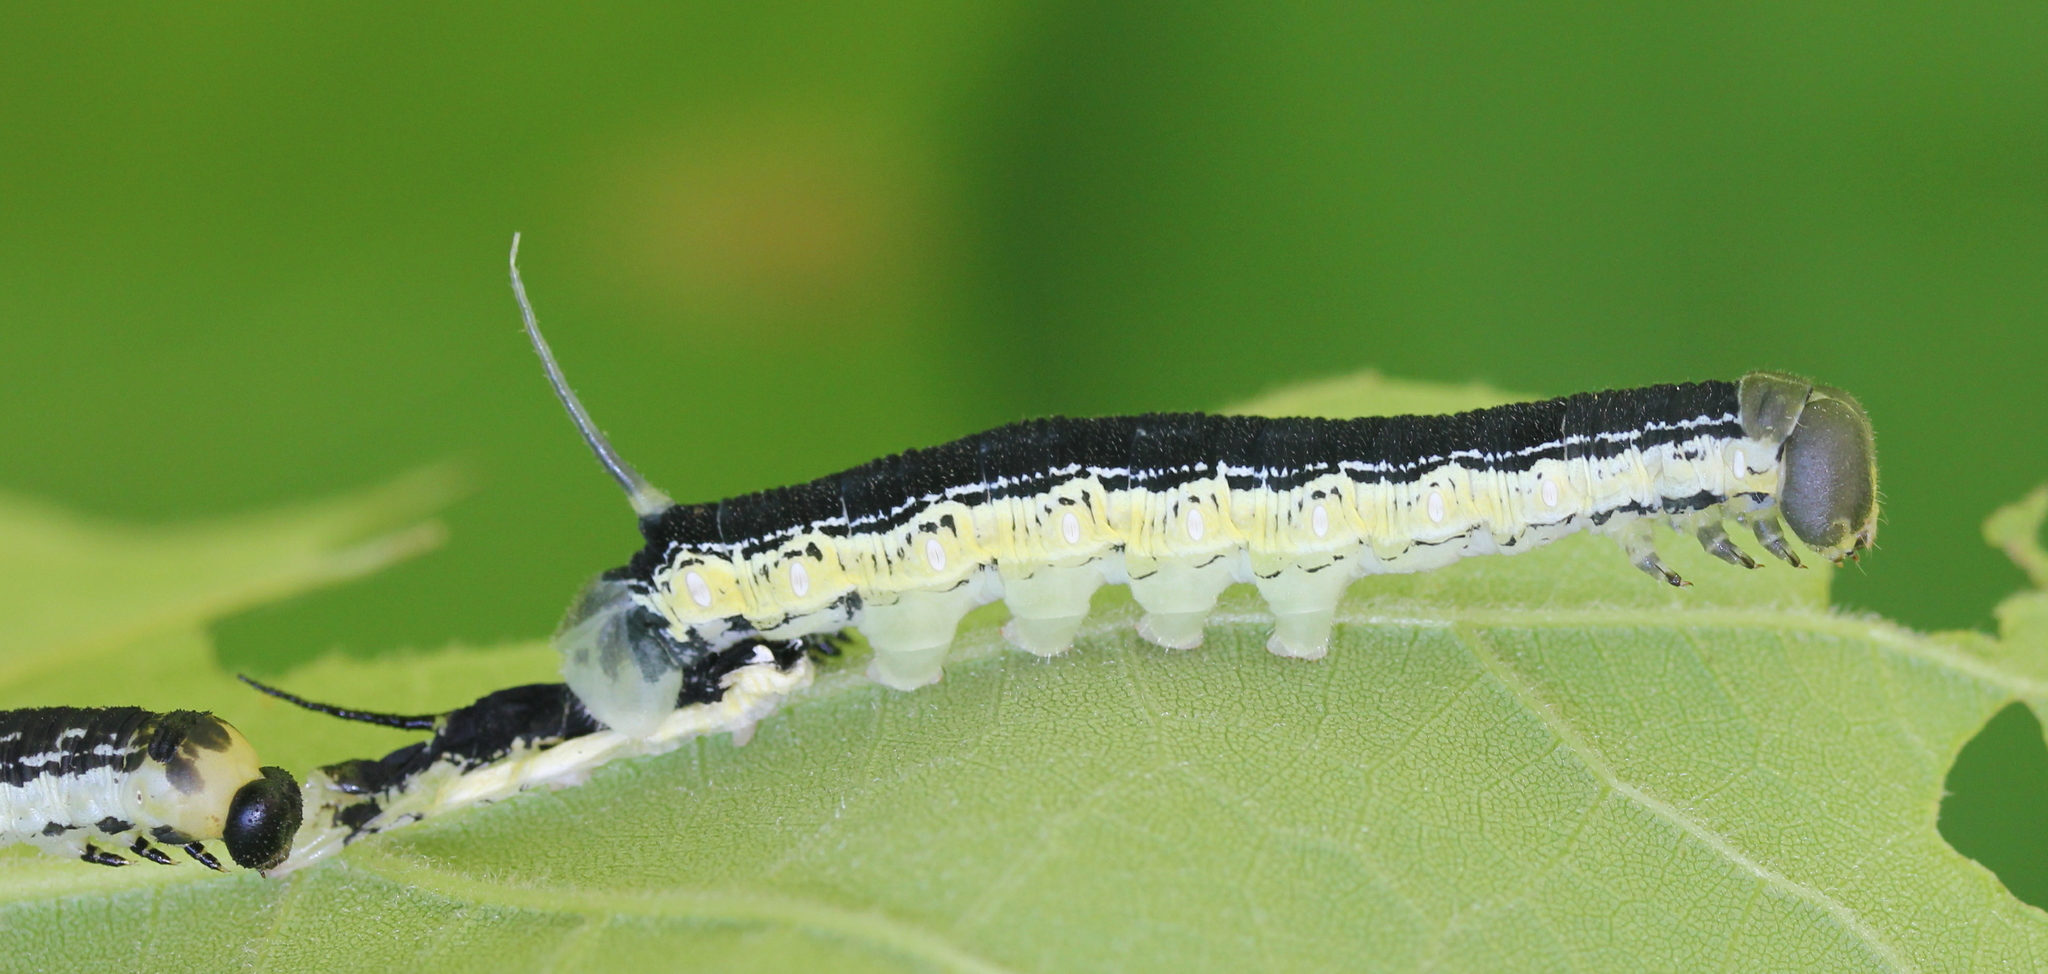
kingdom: Animalia
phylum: Arthropoda
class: Insecta
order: Lepidoptera
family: Sphingidae
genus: Ceratomia
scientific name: Ceratomia catalpae
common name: Catalpa hornworm
